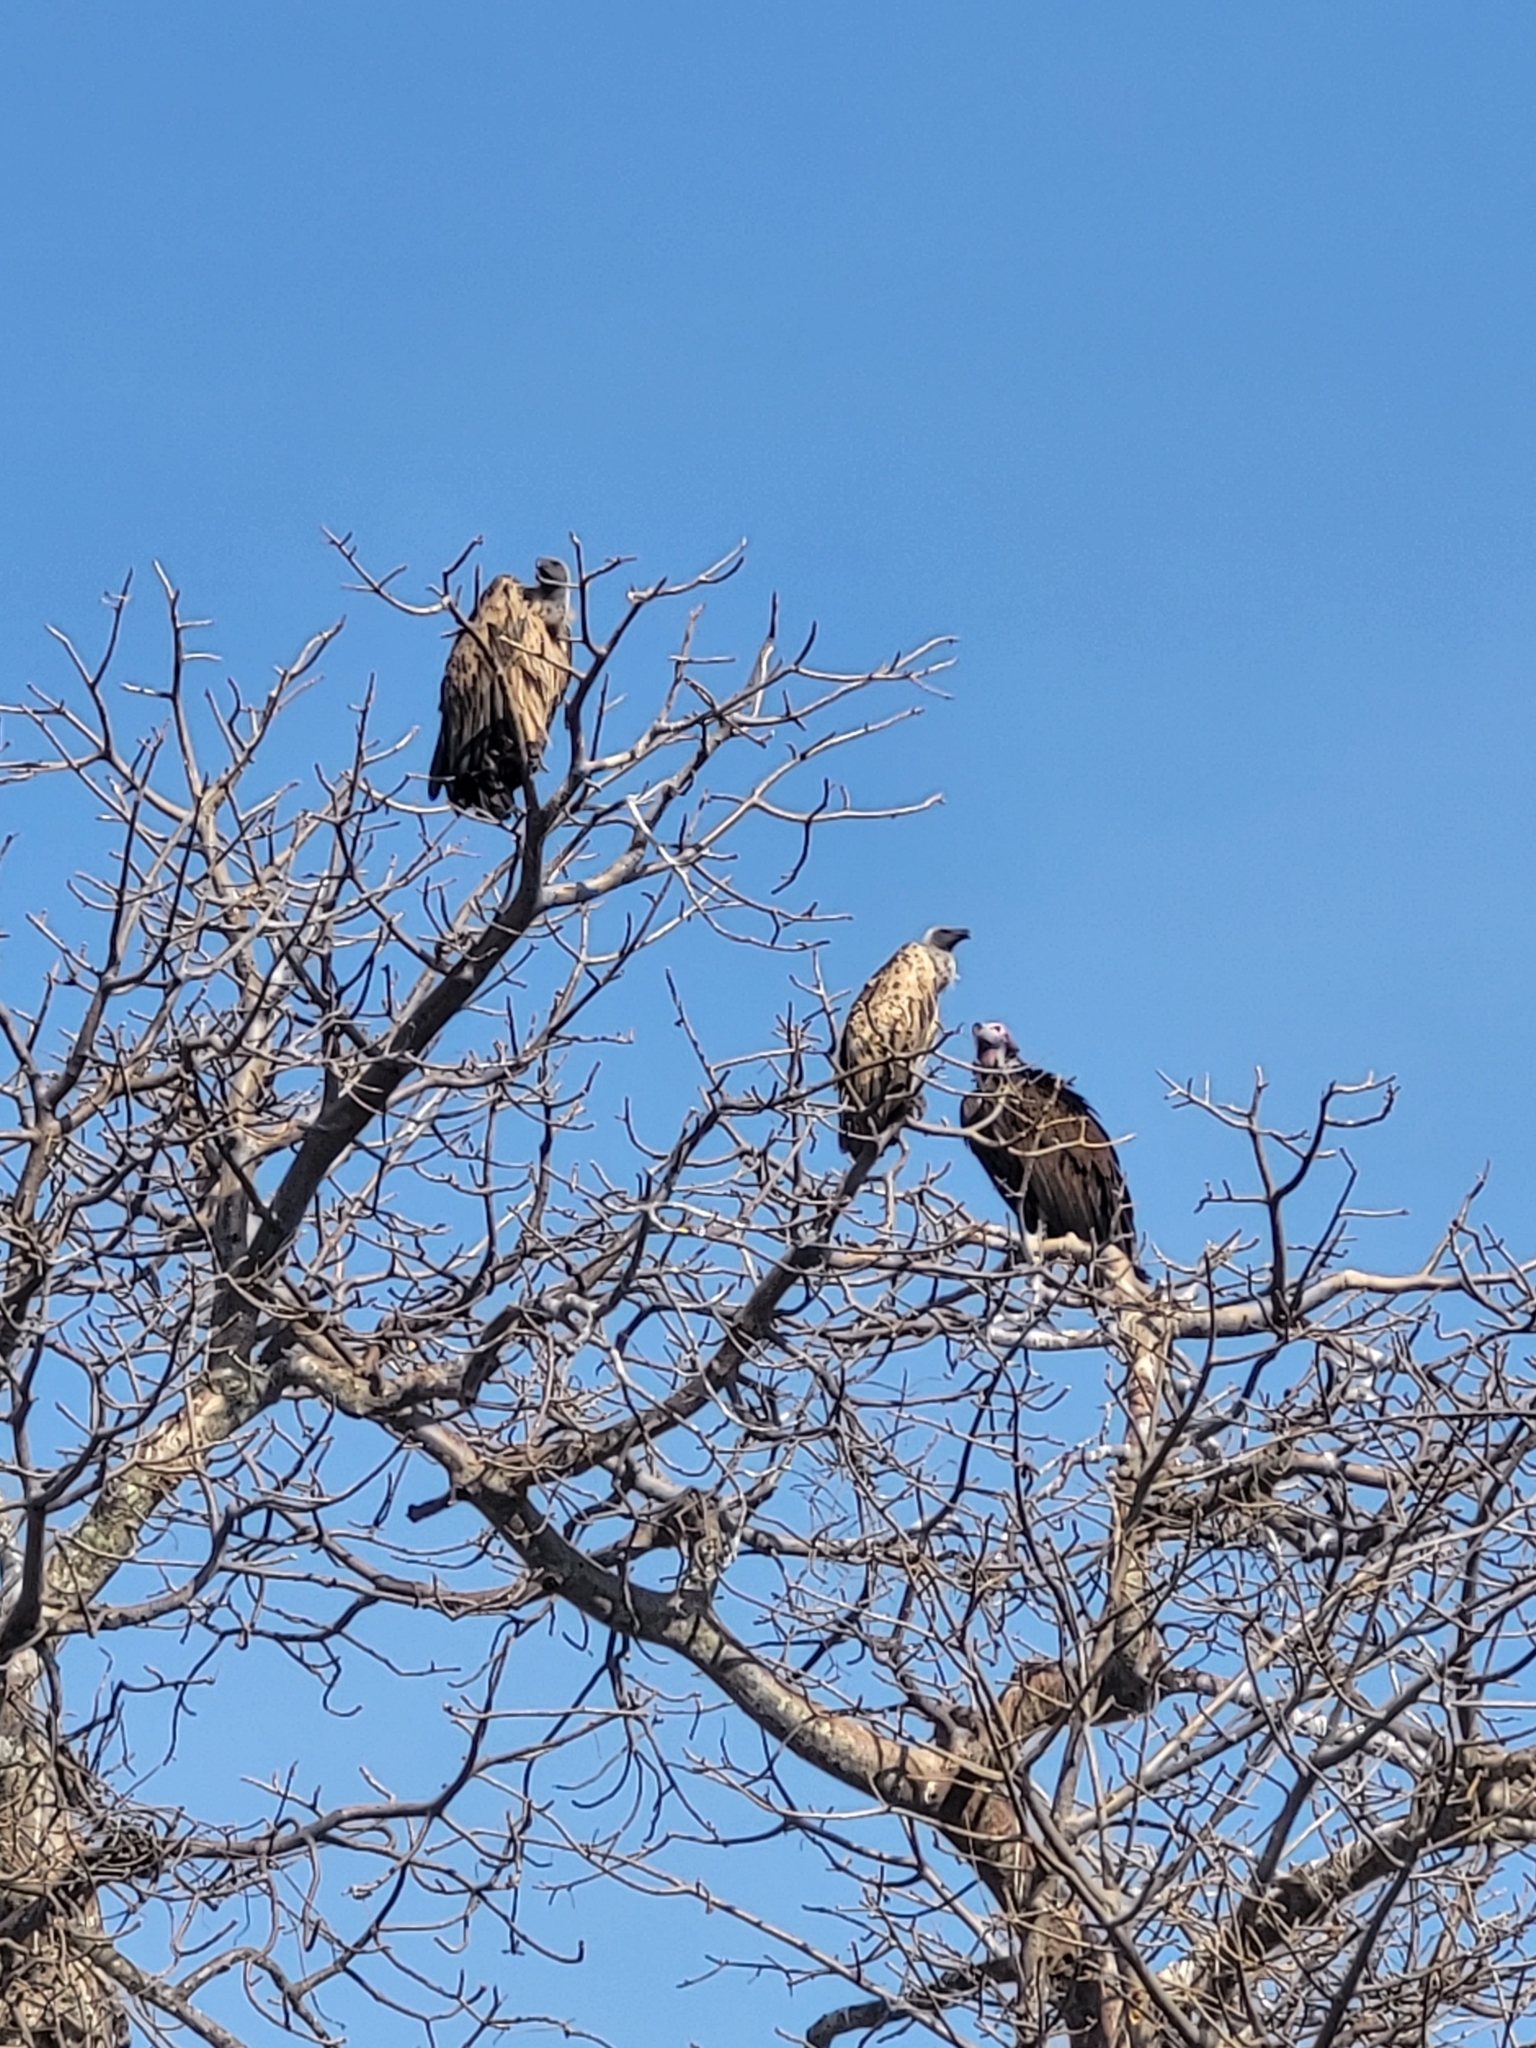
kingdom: Animalia
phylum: Chordata
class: Aves
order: Accipitriformes
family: Accipitridae
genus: Gyps
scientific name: Gyps africanus
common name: White-backed vulture
